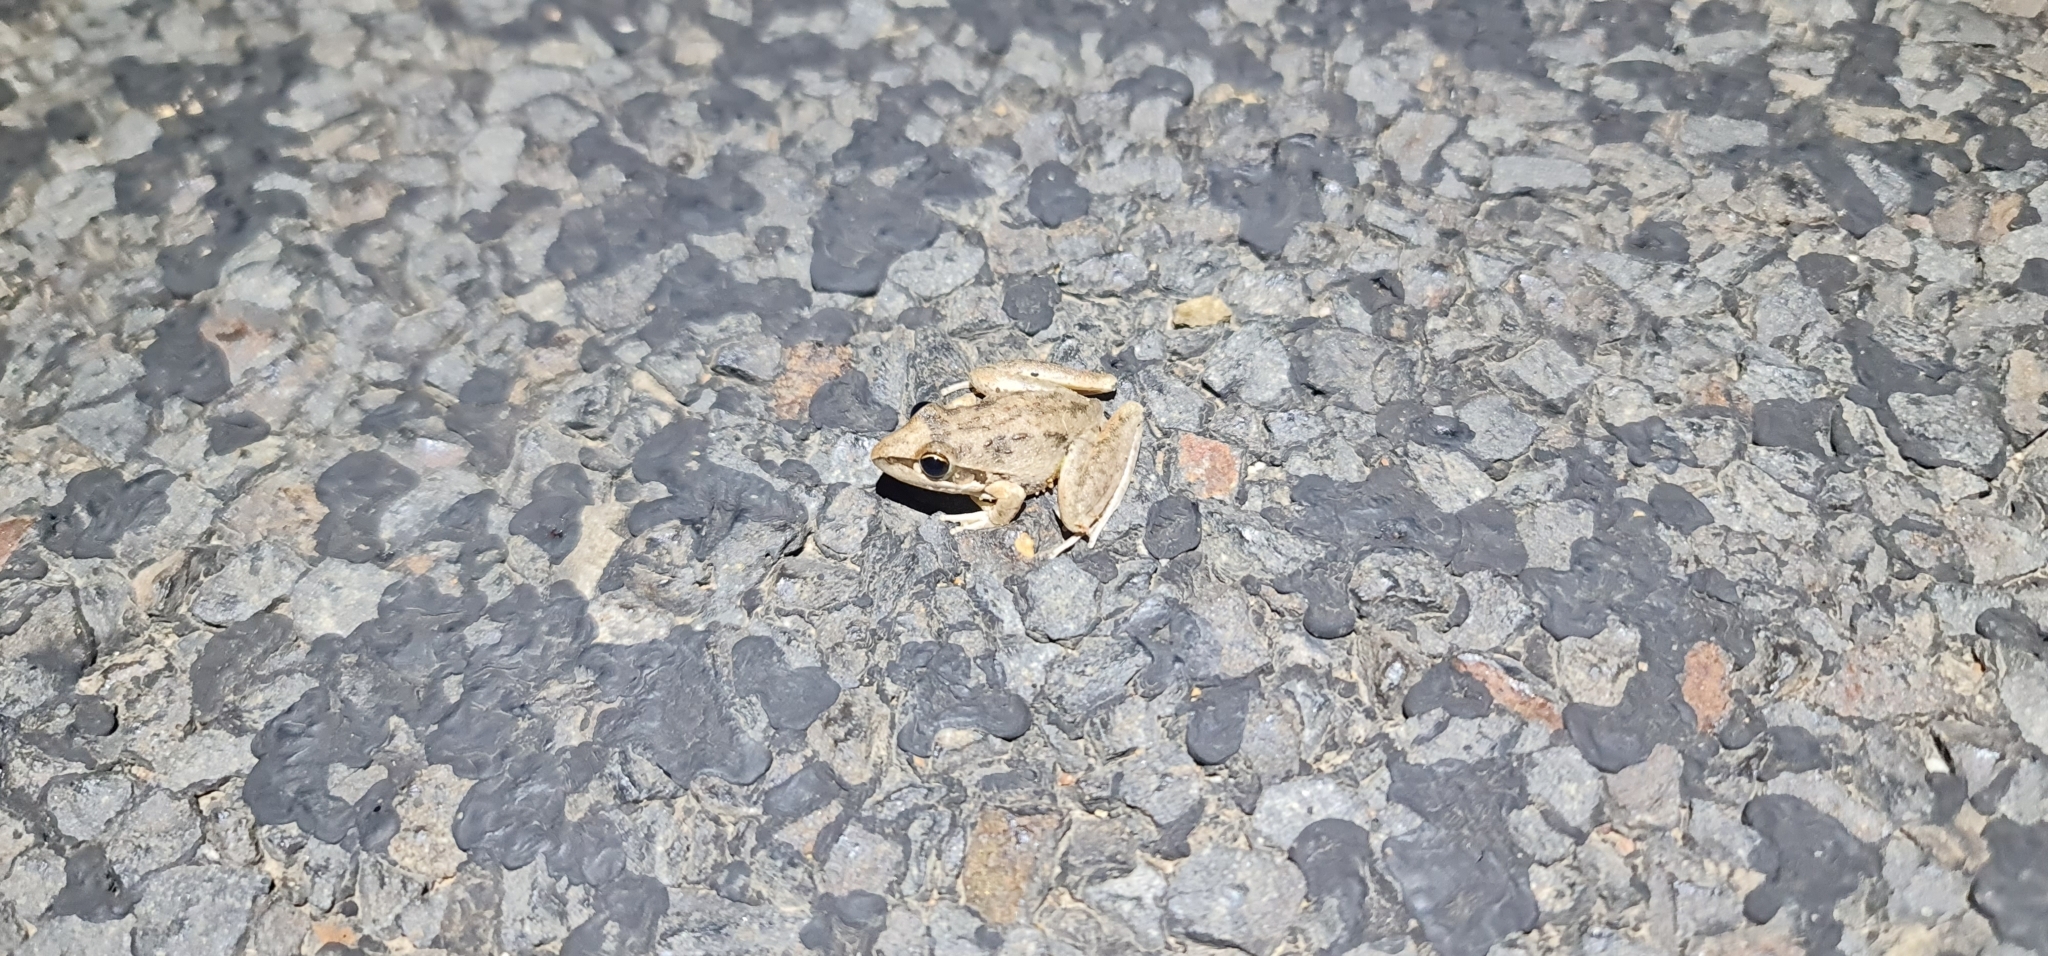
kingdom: Animalia
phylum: Chordata
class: Amphibia
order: Anura
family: Pelodryadidae
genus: Litoria
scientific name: Litoria latopalmata
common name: Broad-palmed rocket frog
